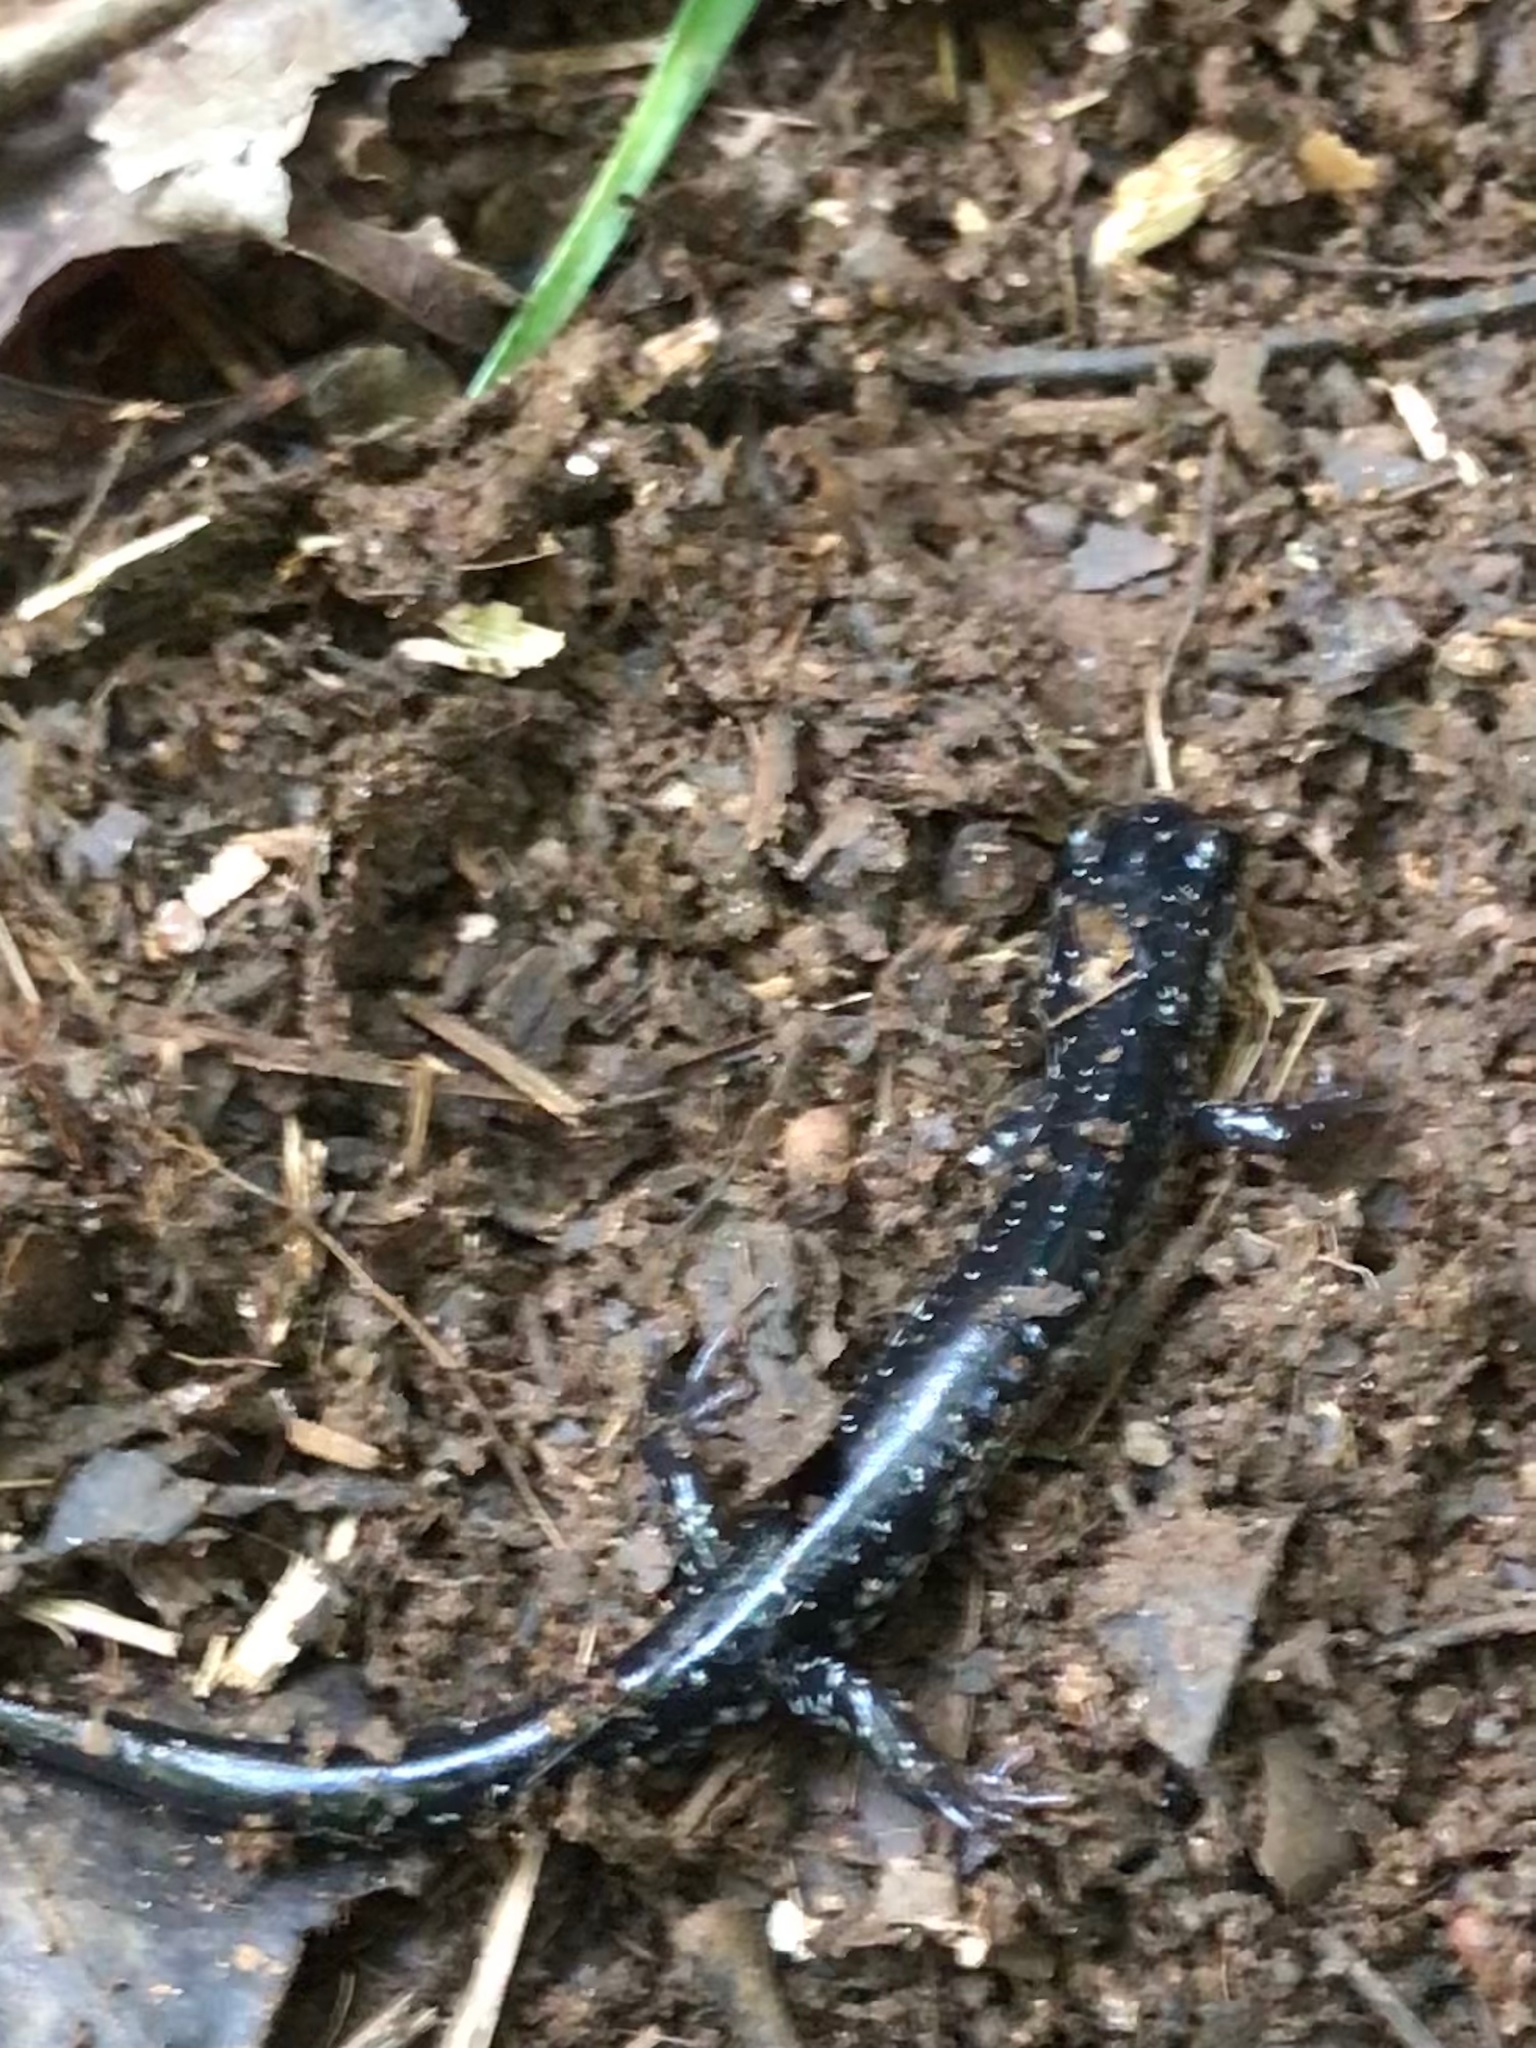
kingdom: Animalia
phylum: Chordata
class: Amphibia
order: Caudata
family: Plethodontidae
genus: Plethodon
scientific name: Plethodon glutinosus
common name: Northern slimy salamander
